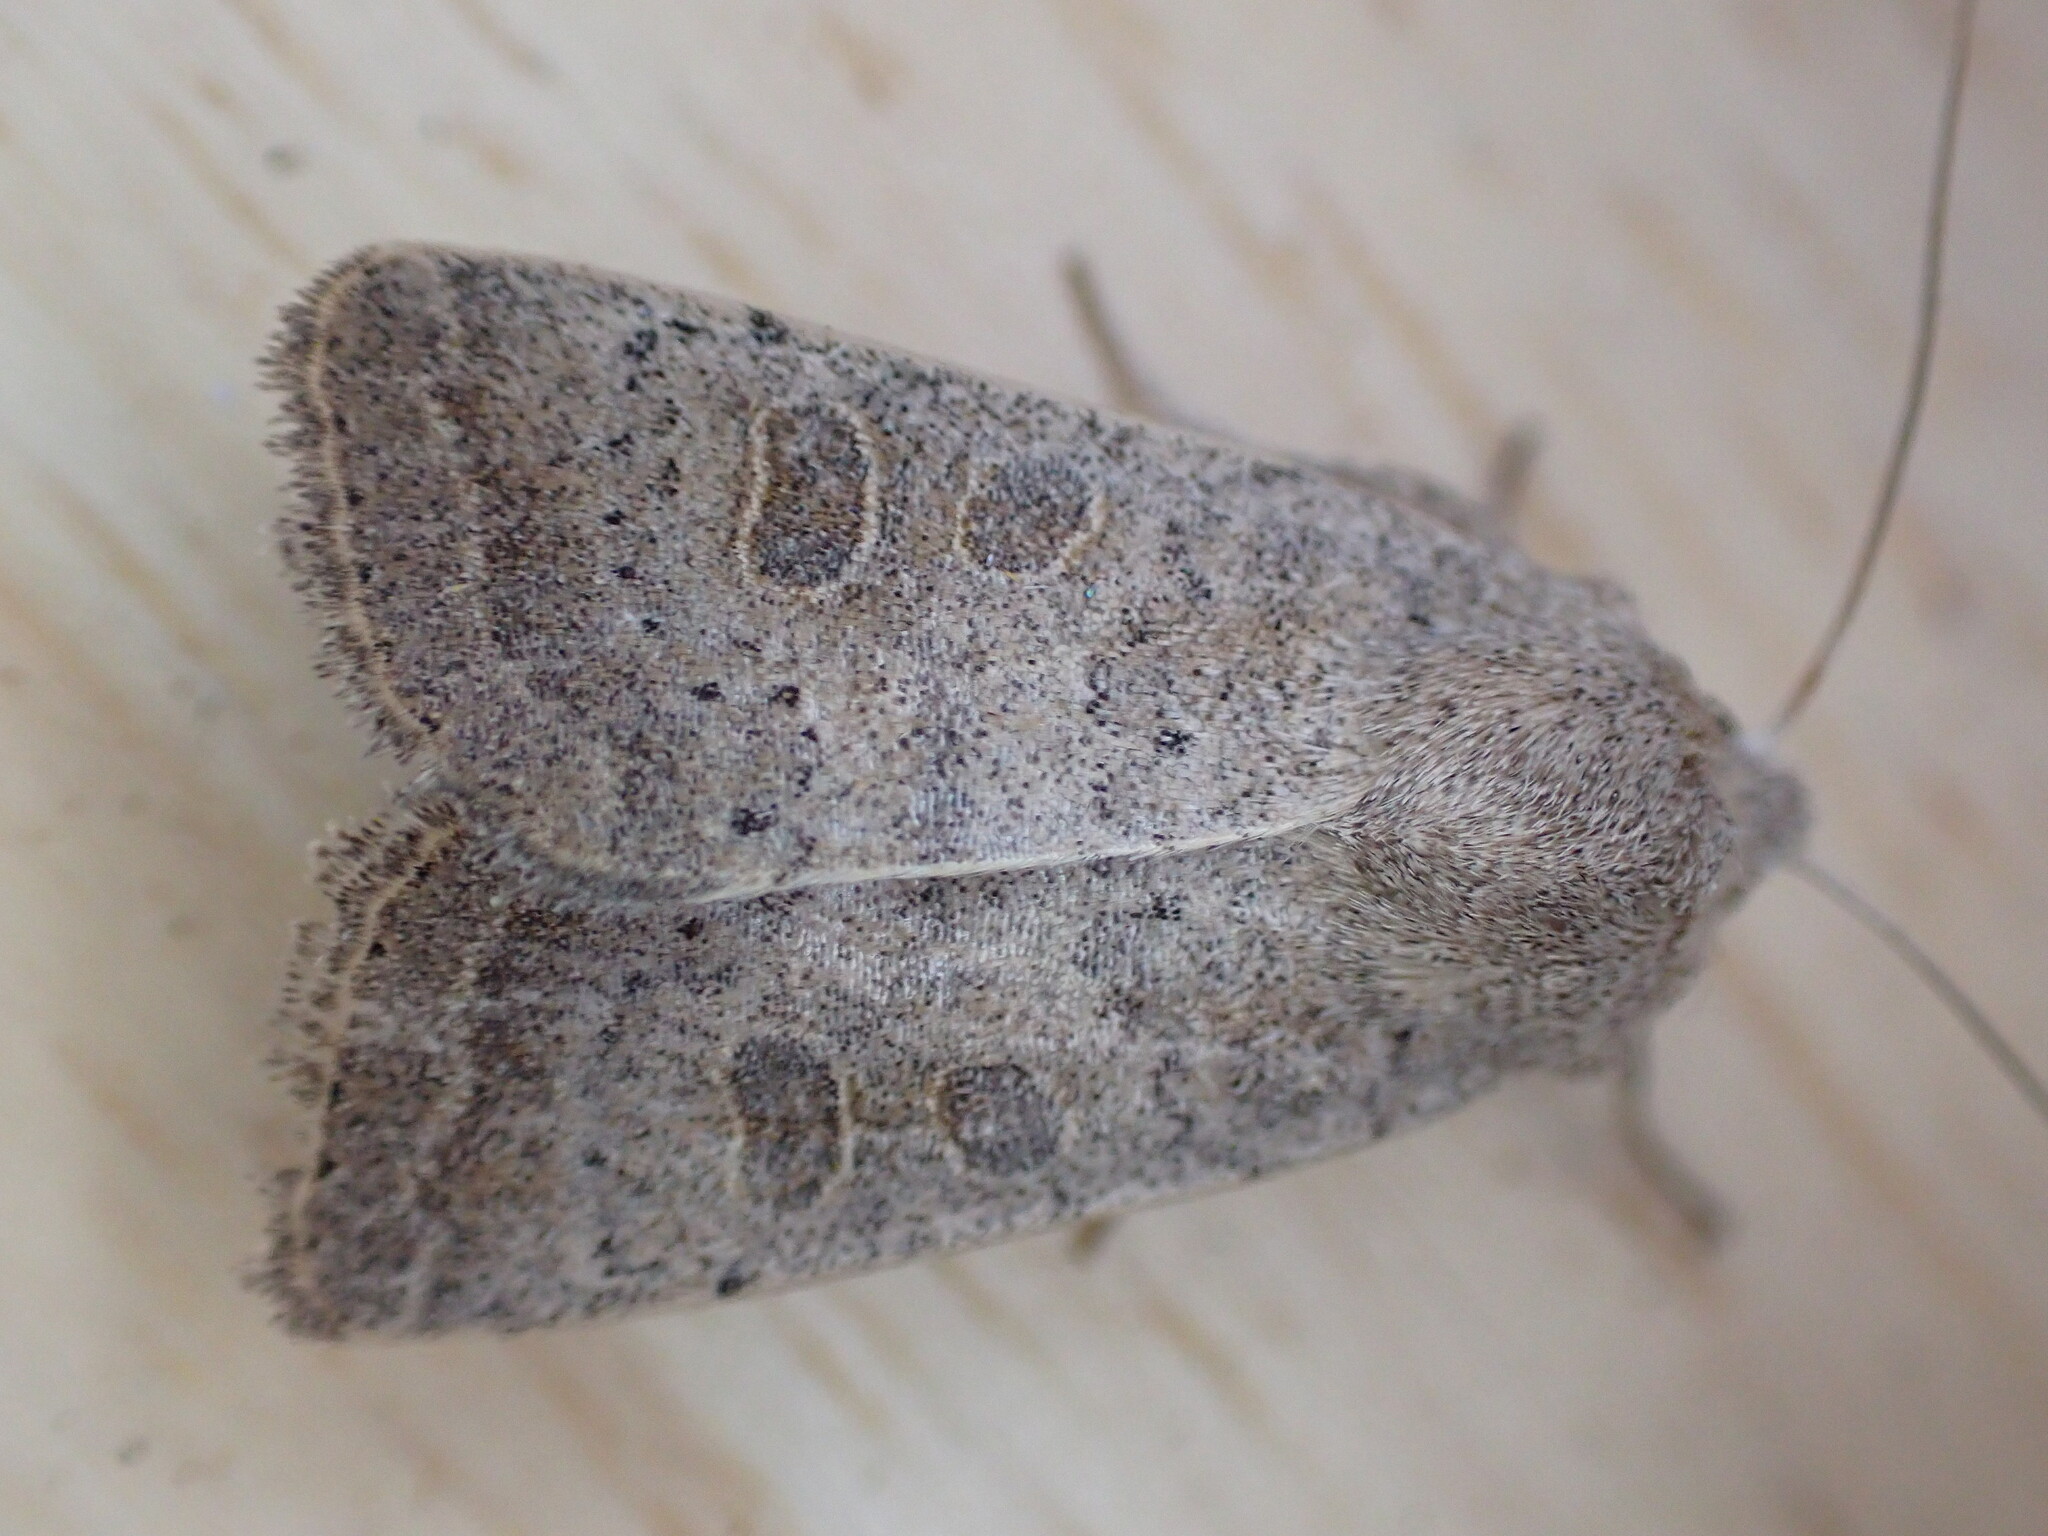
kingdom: Animalia
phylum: Arthropoda
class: Insecta
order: Lepidoptera
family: Noctuidae
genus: Hoplodrina
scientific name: Hoplodrina ambigua
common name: Vine's rustic
